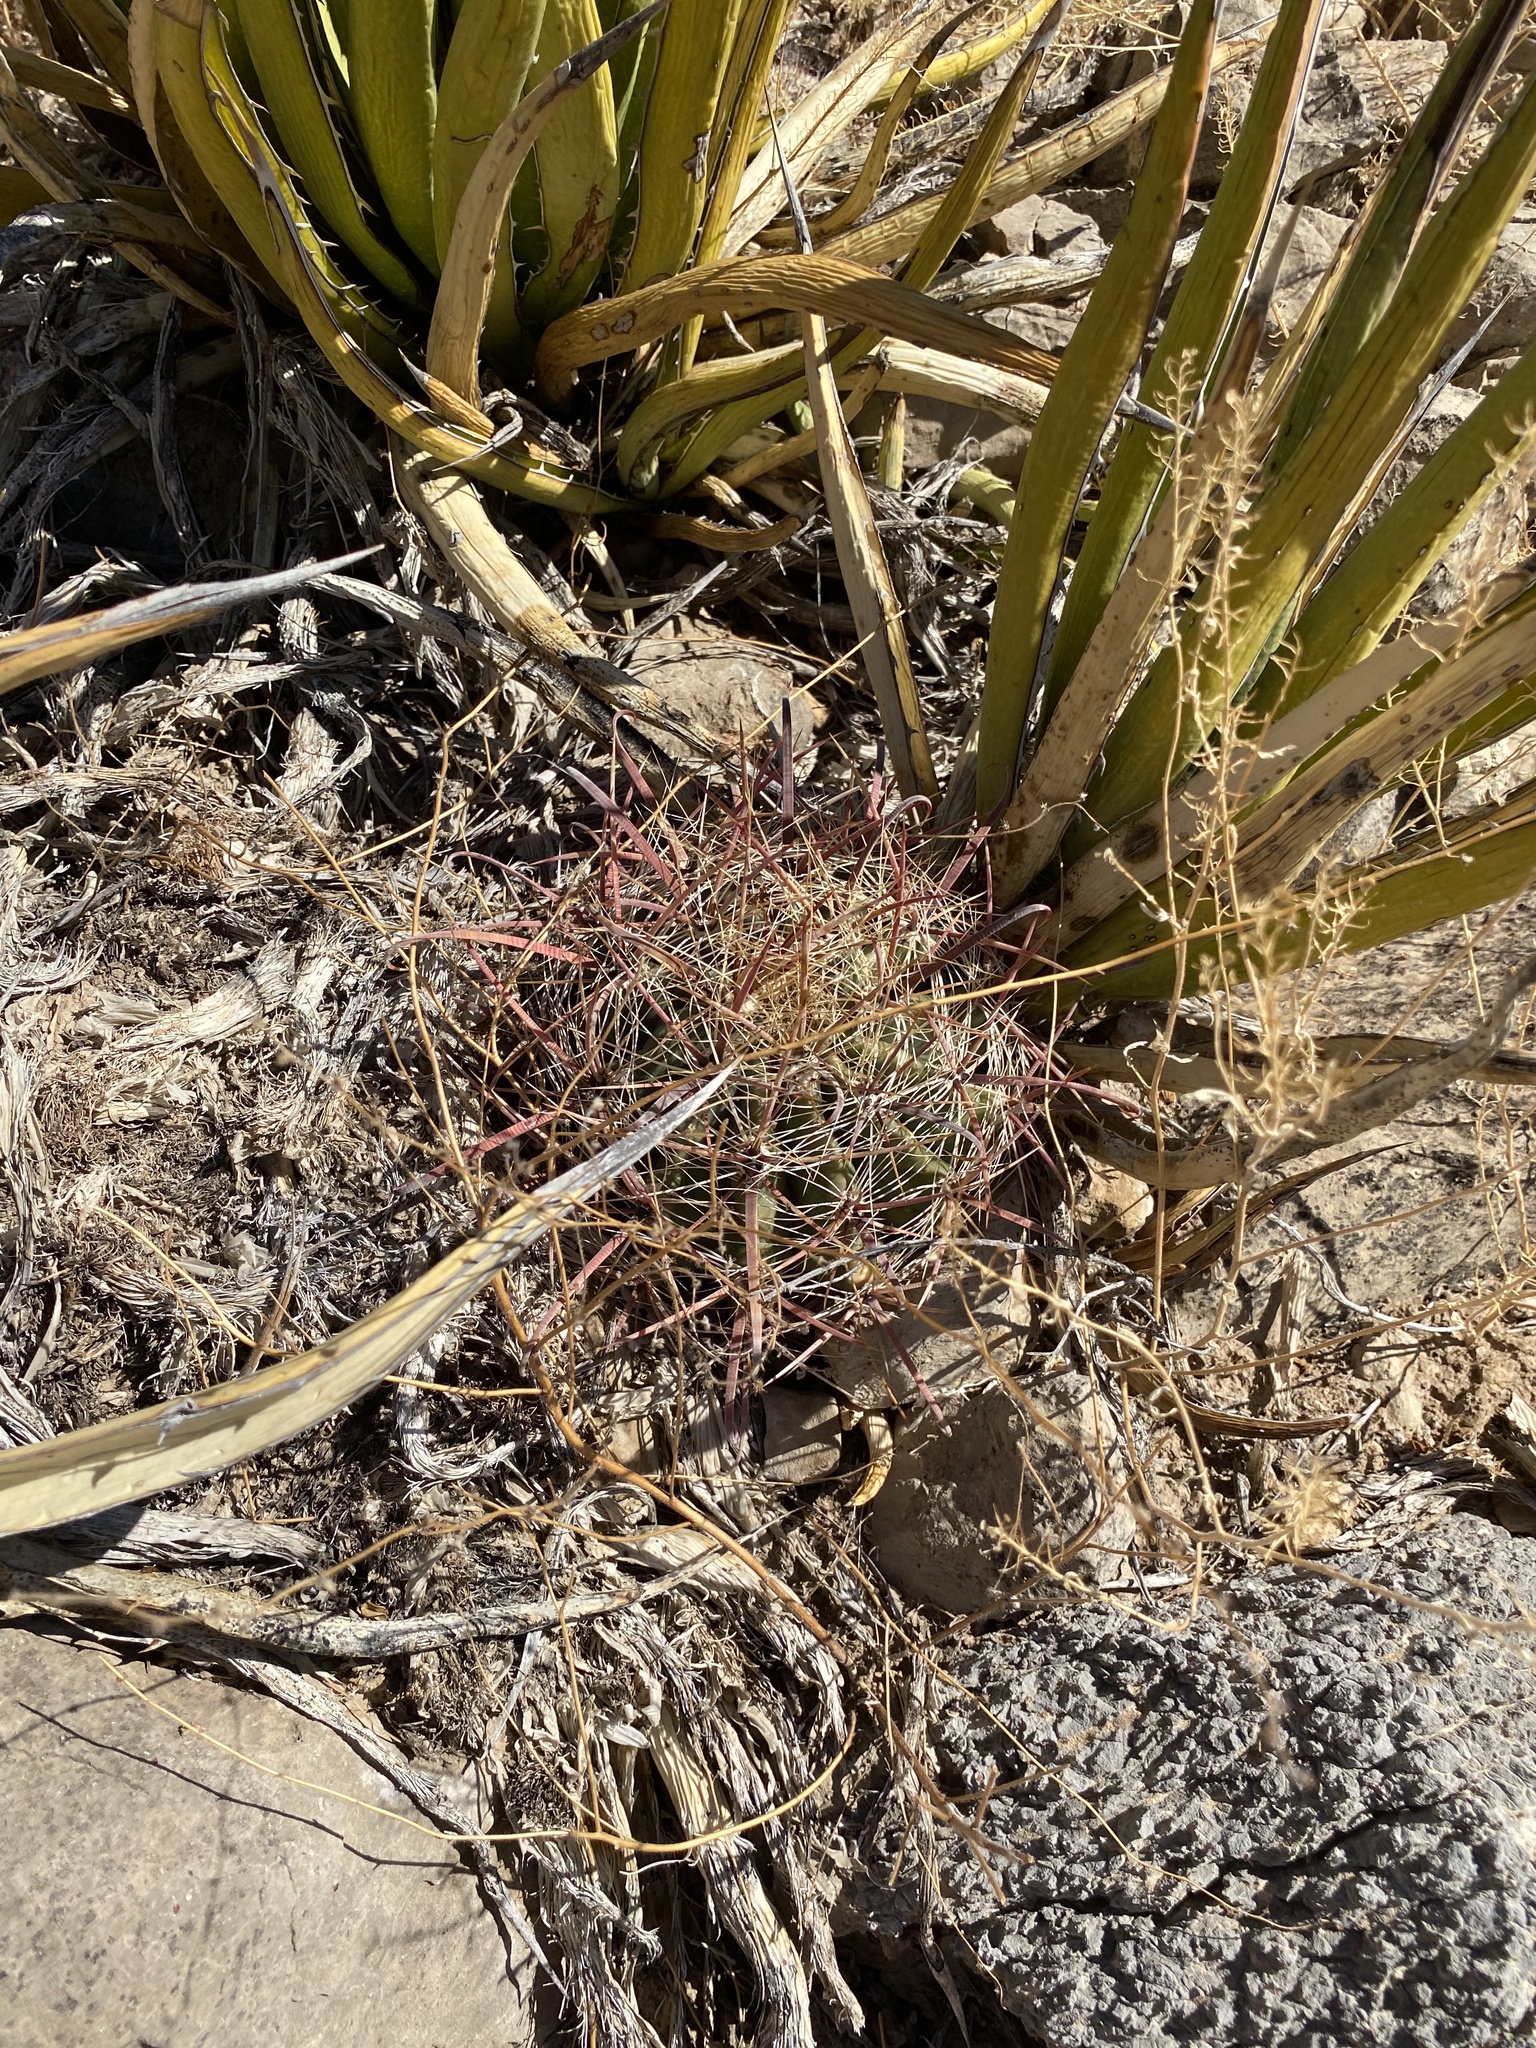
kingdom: Plantae
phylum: Tracheophyta
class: Magnoliopsida
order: Caryophyllales
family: Cactaceae
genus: Ferocactus
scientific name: Ferocactus wislizeni
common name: Candy barrel cactus
